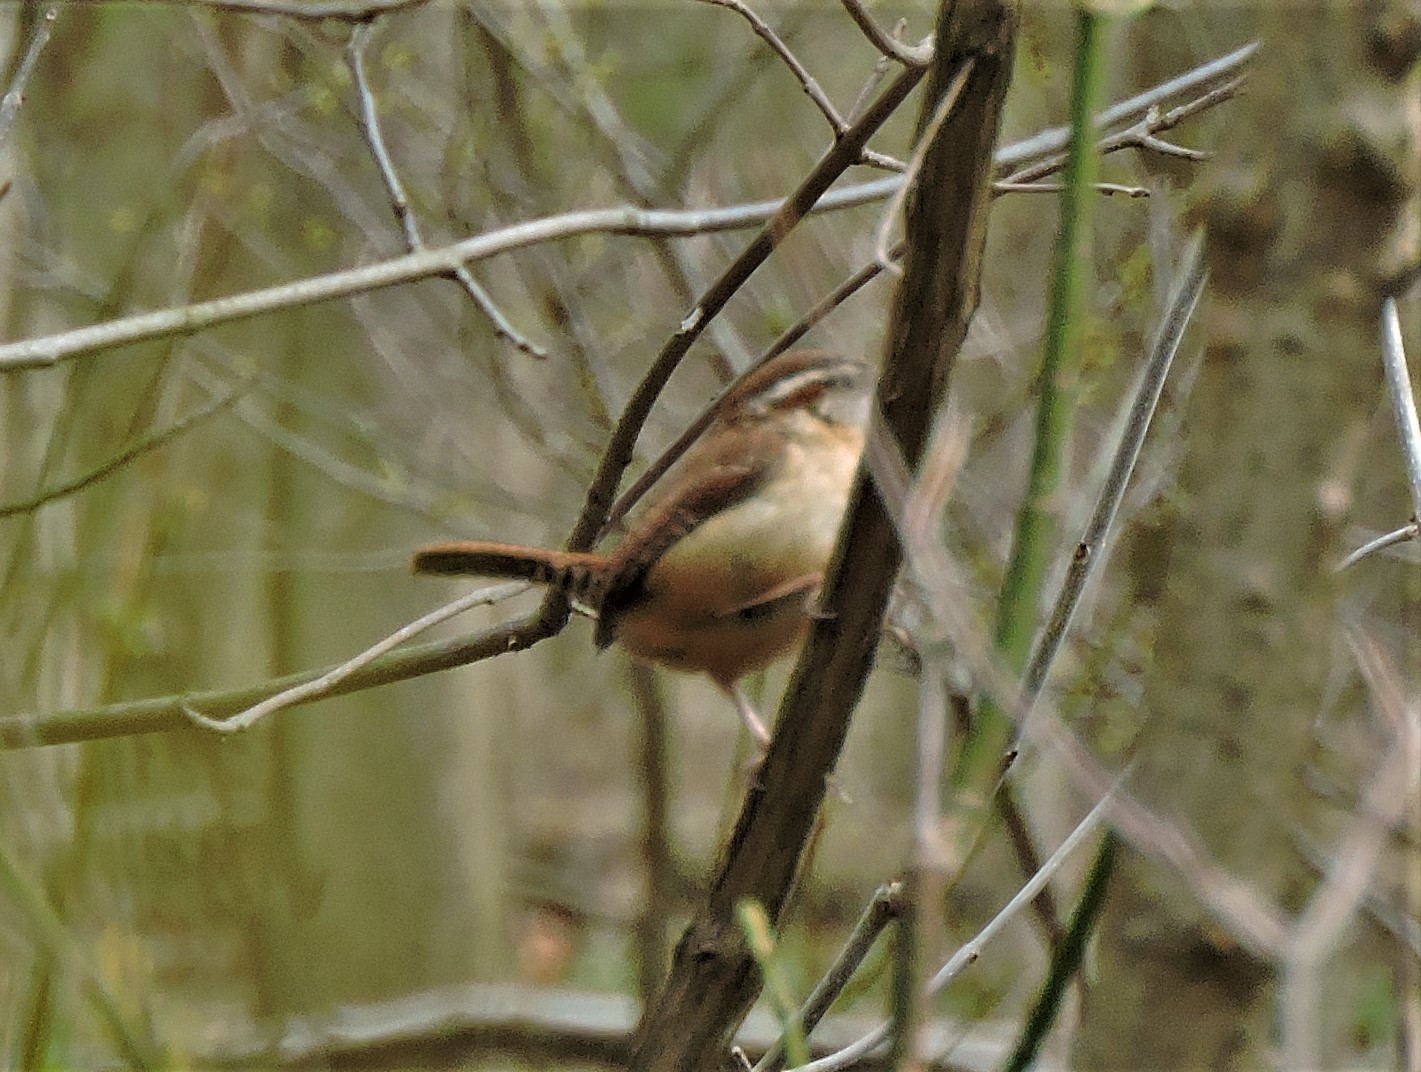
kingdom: Animalia
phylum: Chordata
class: Aves
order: Passeriformes
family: Troglodytidae
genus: Thryothorus
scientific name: Thryothorus ludovicianus
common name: Carolina wren
